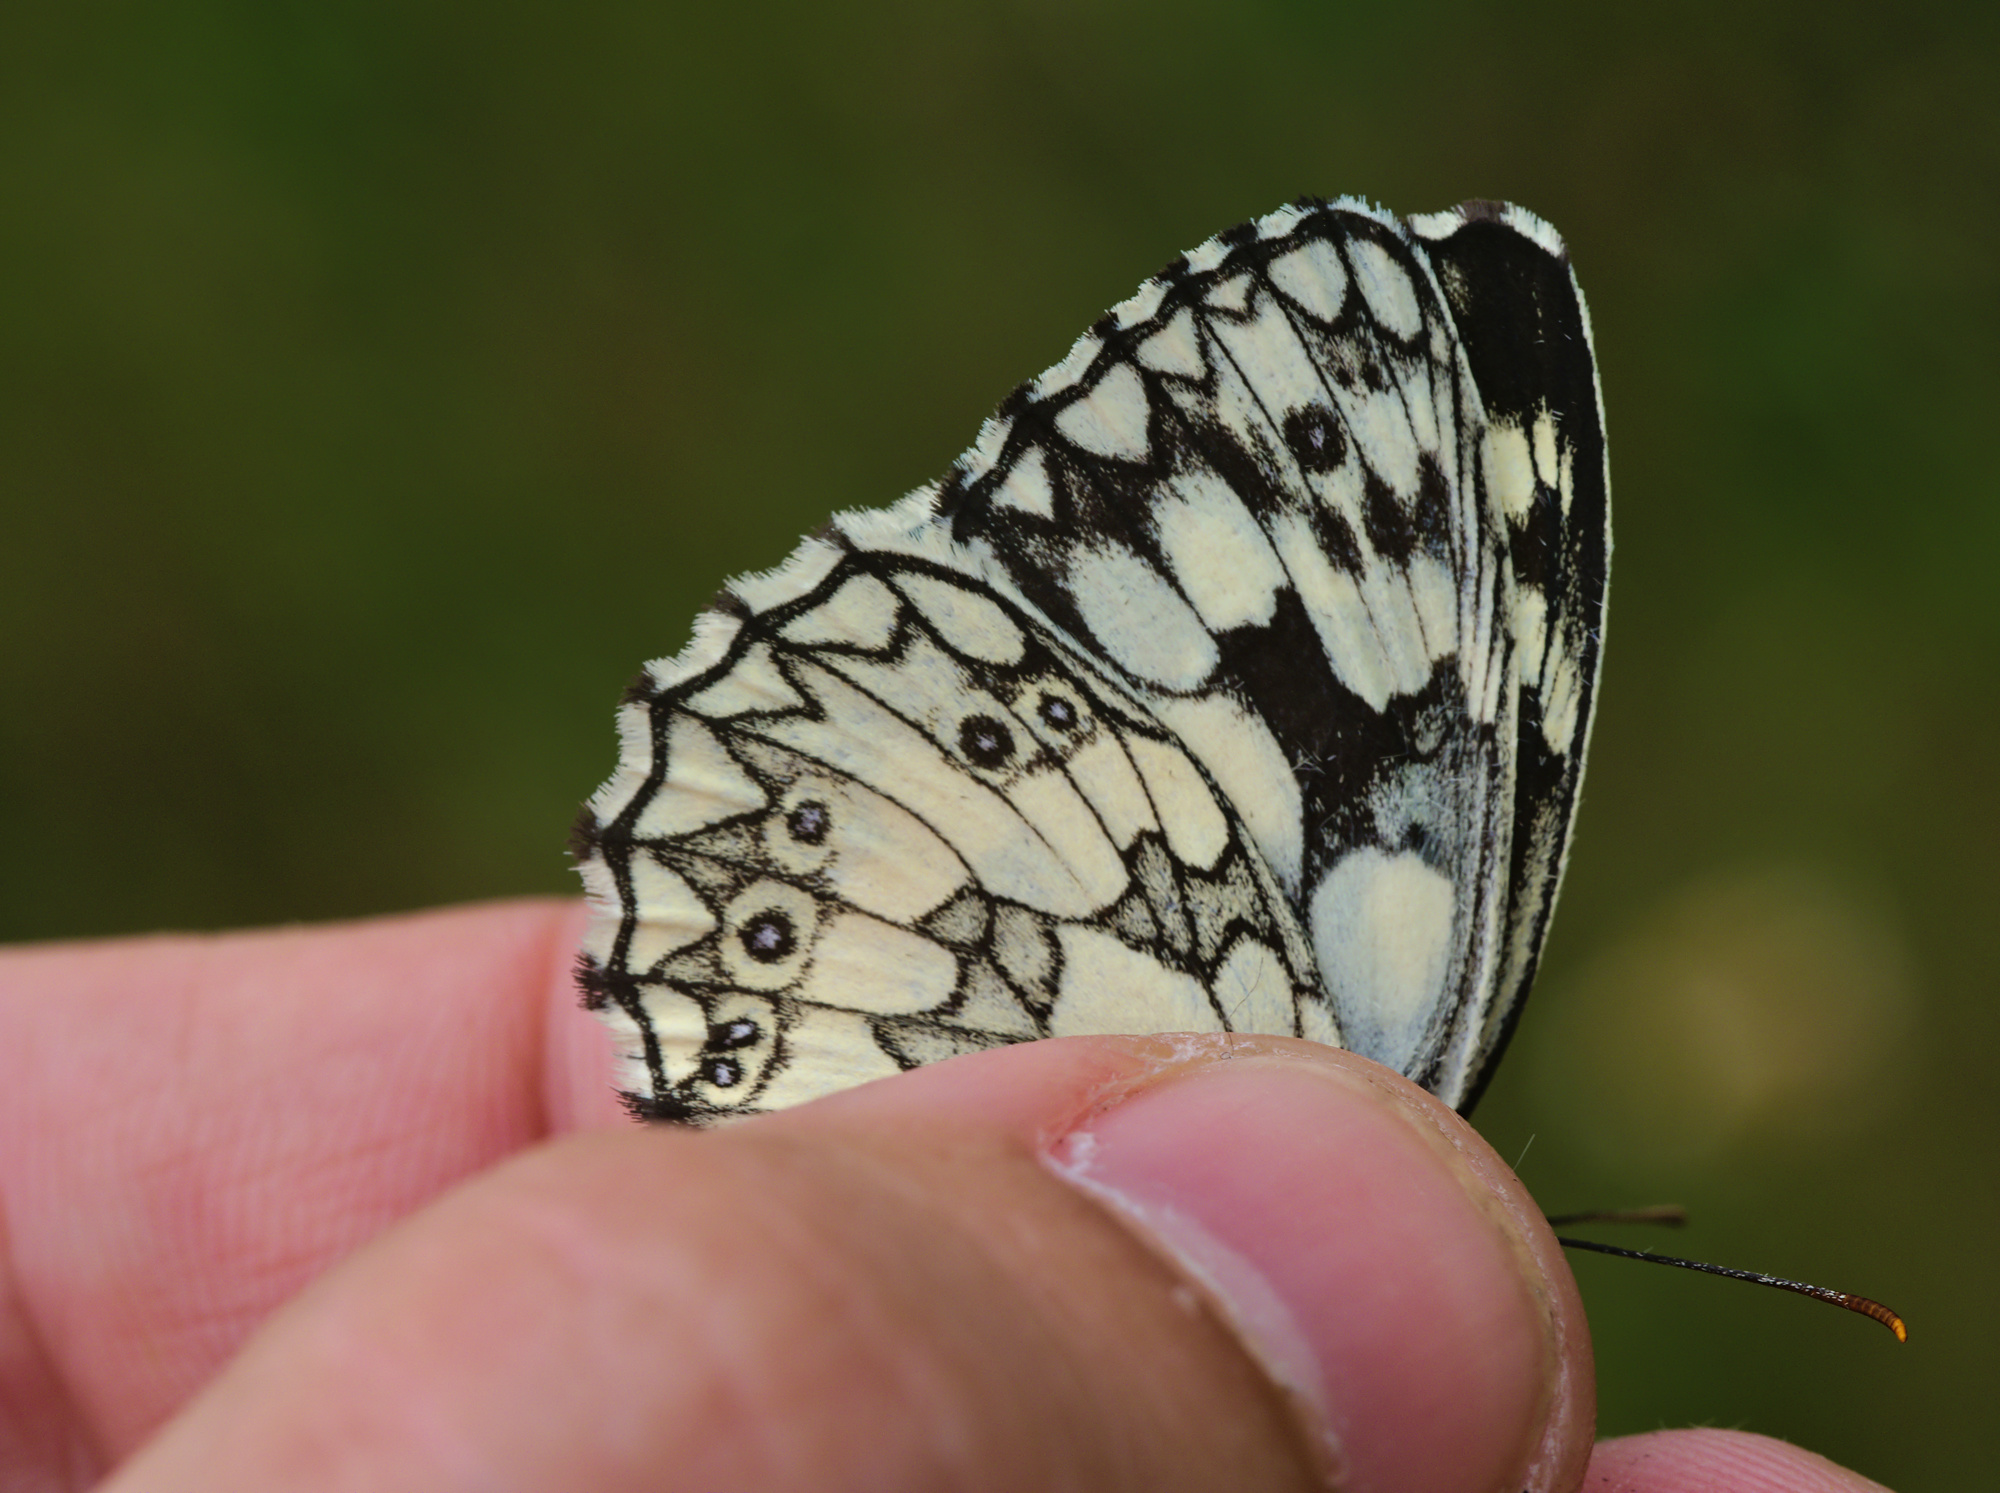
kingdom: Animalia
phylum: Arthropoda
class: Insecta
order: Lepidoptera
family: Nymphalidae
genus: Melanargia
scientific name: Melanargia galathea
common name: Marbled white
